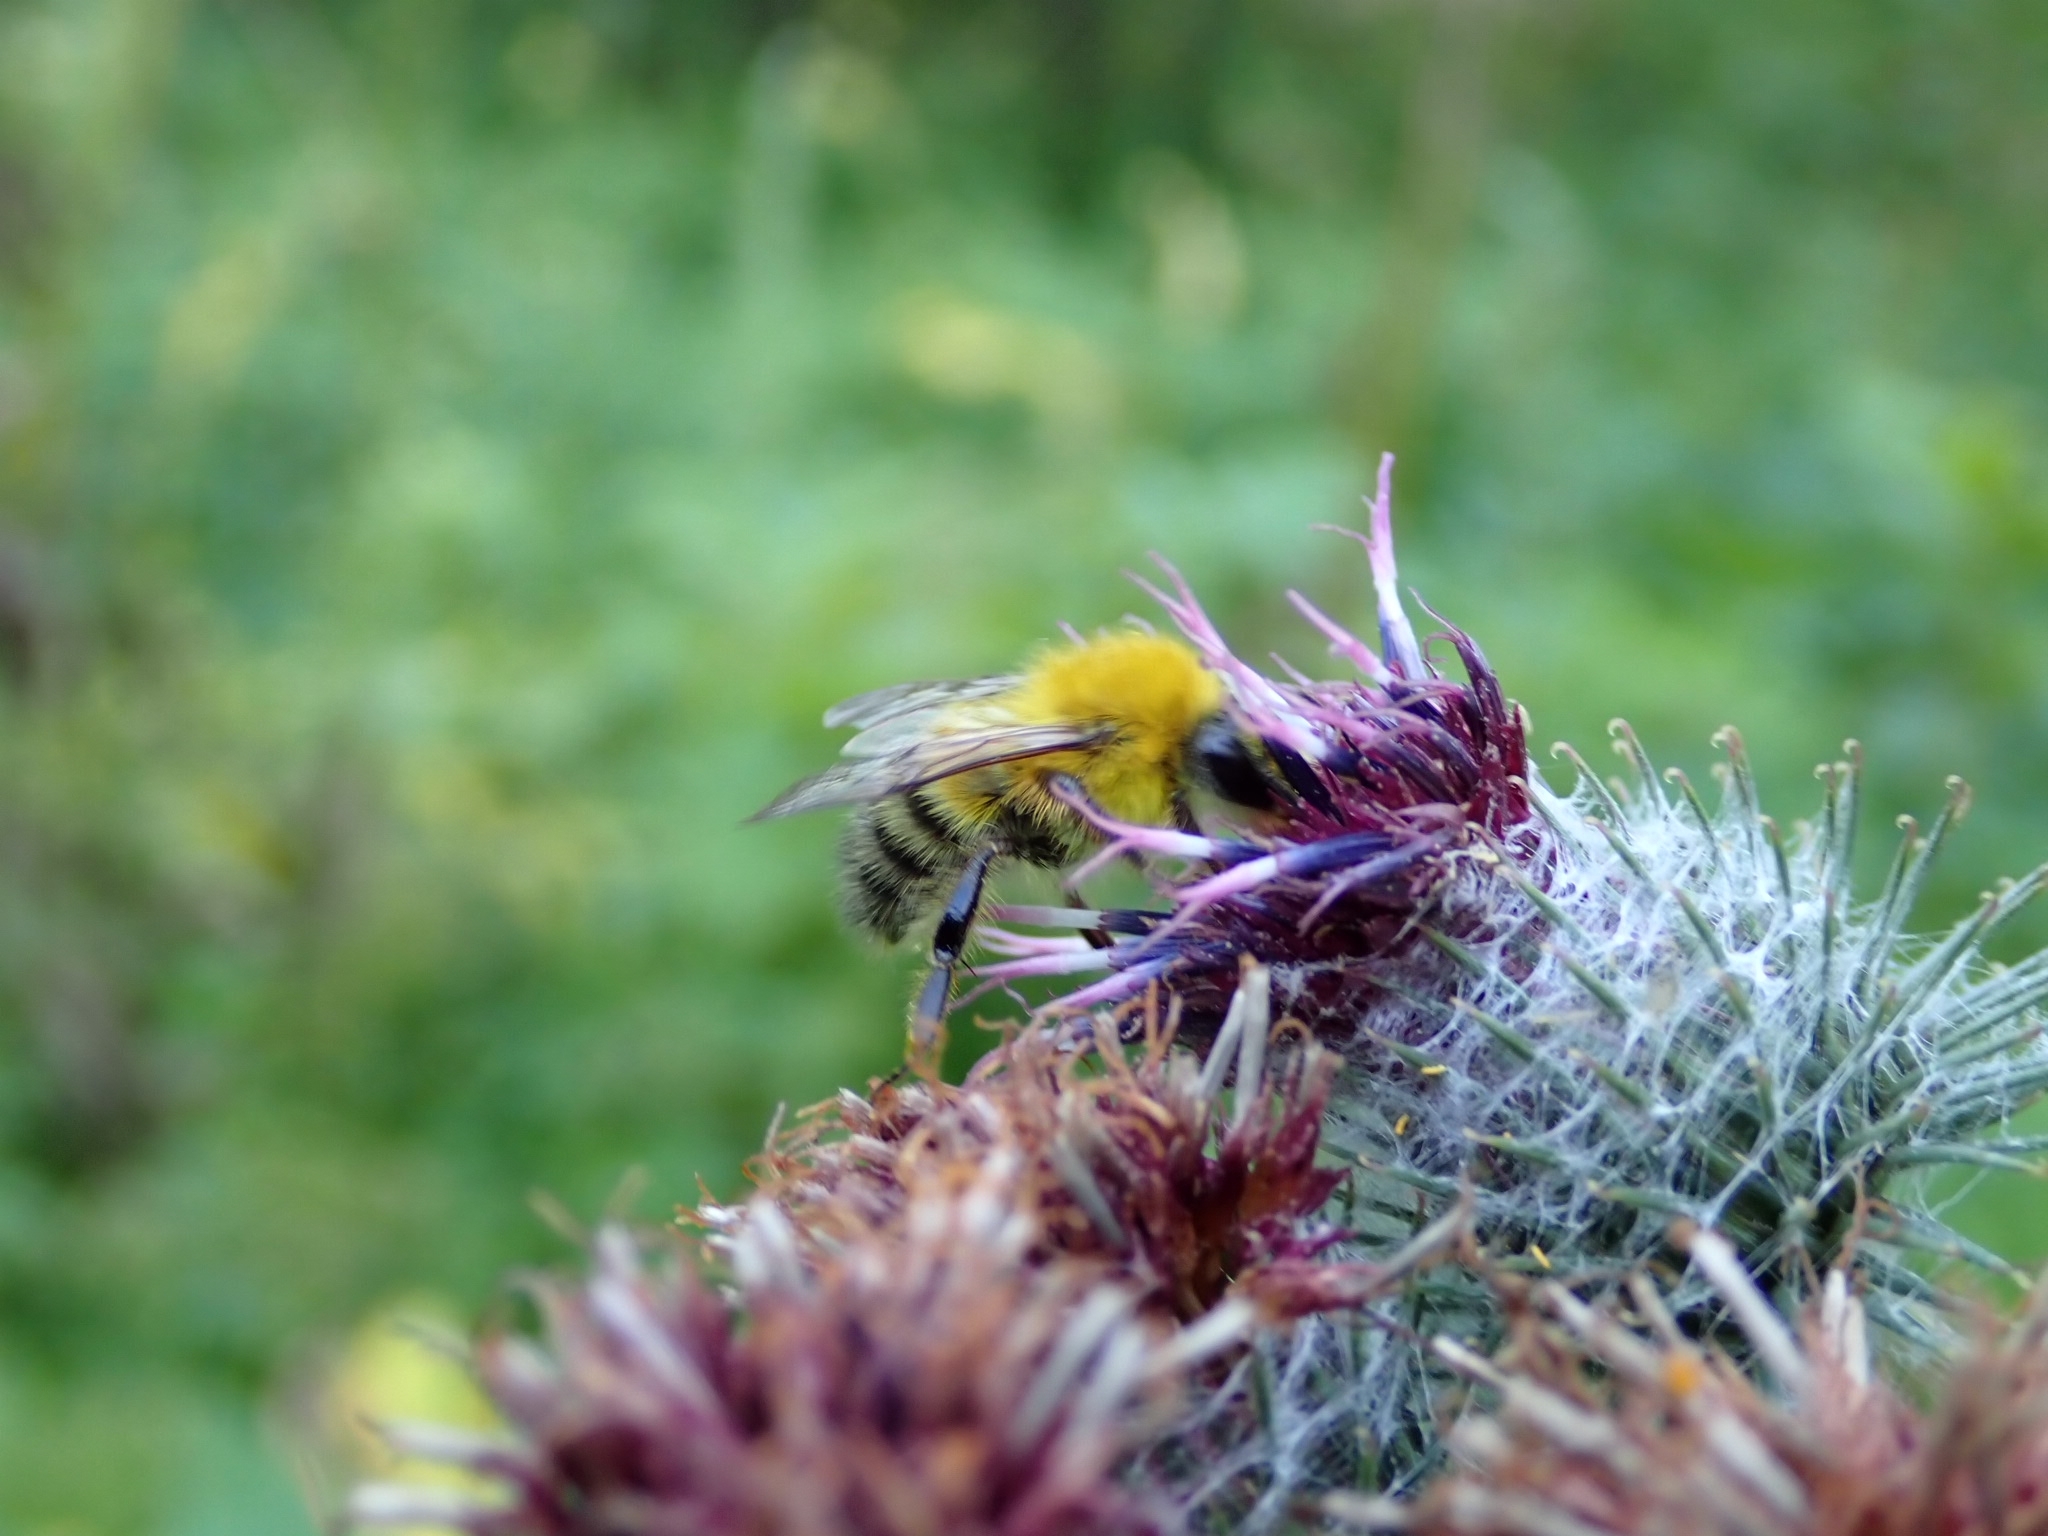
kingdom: Animalia
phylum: Arthropoda
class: Insecta
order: Hymenoptera
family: Apidae
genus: Bombus
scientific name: Bombus modestus
